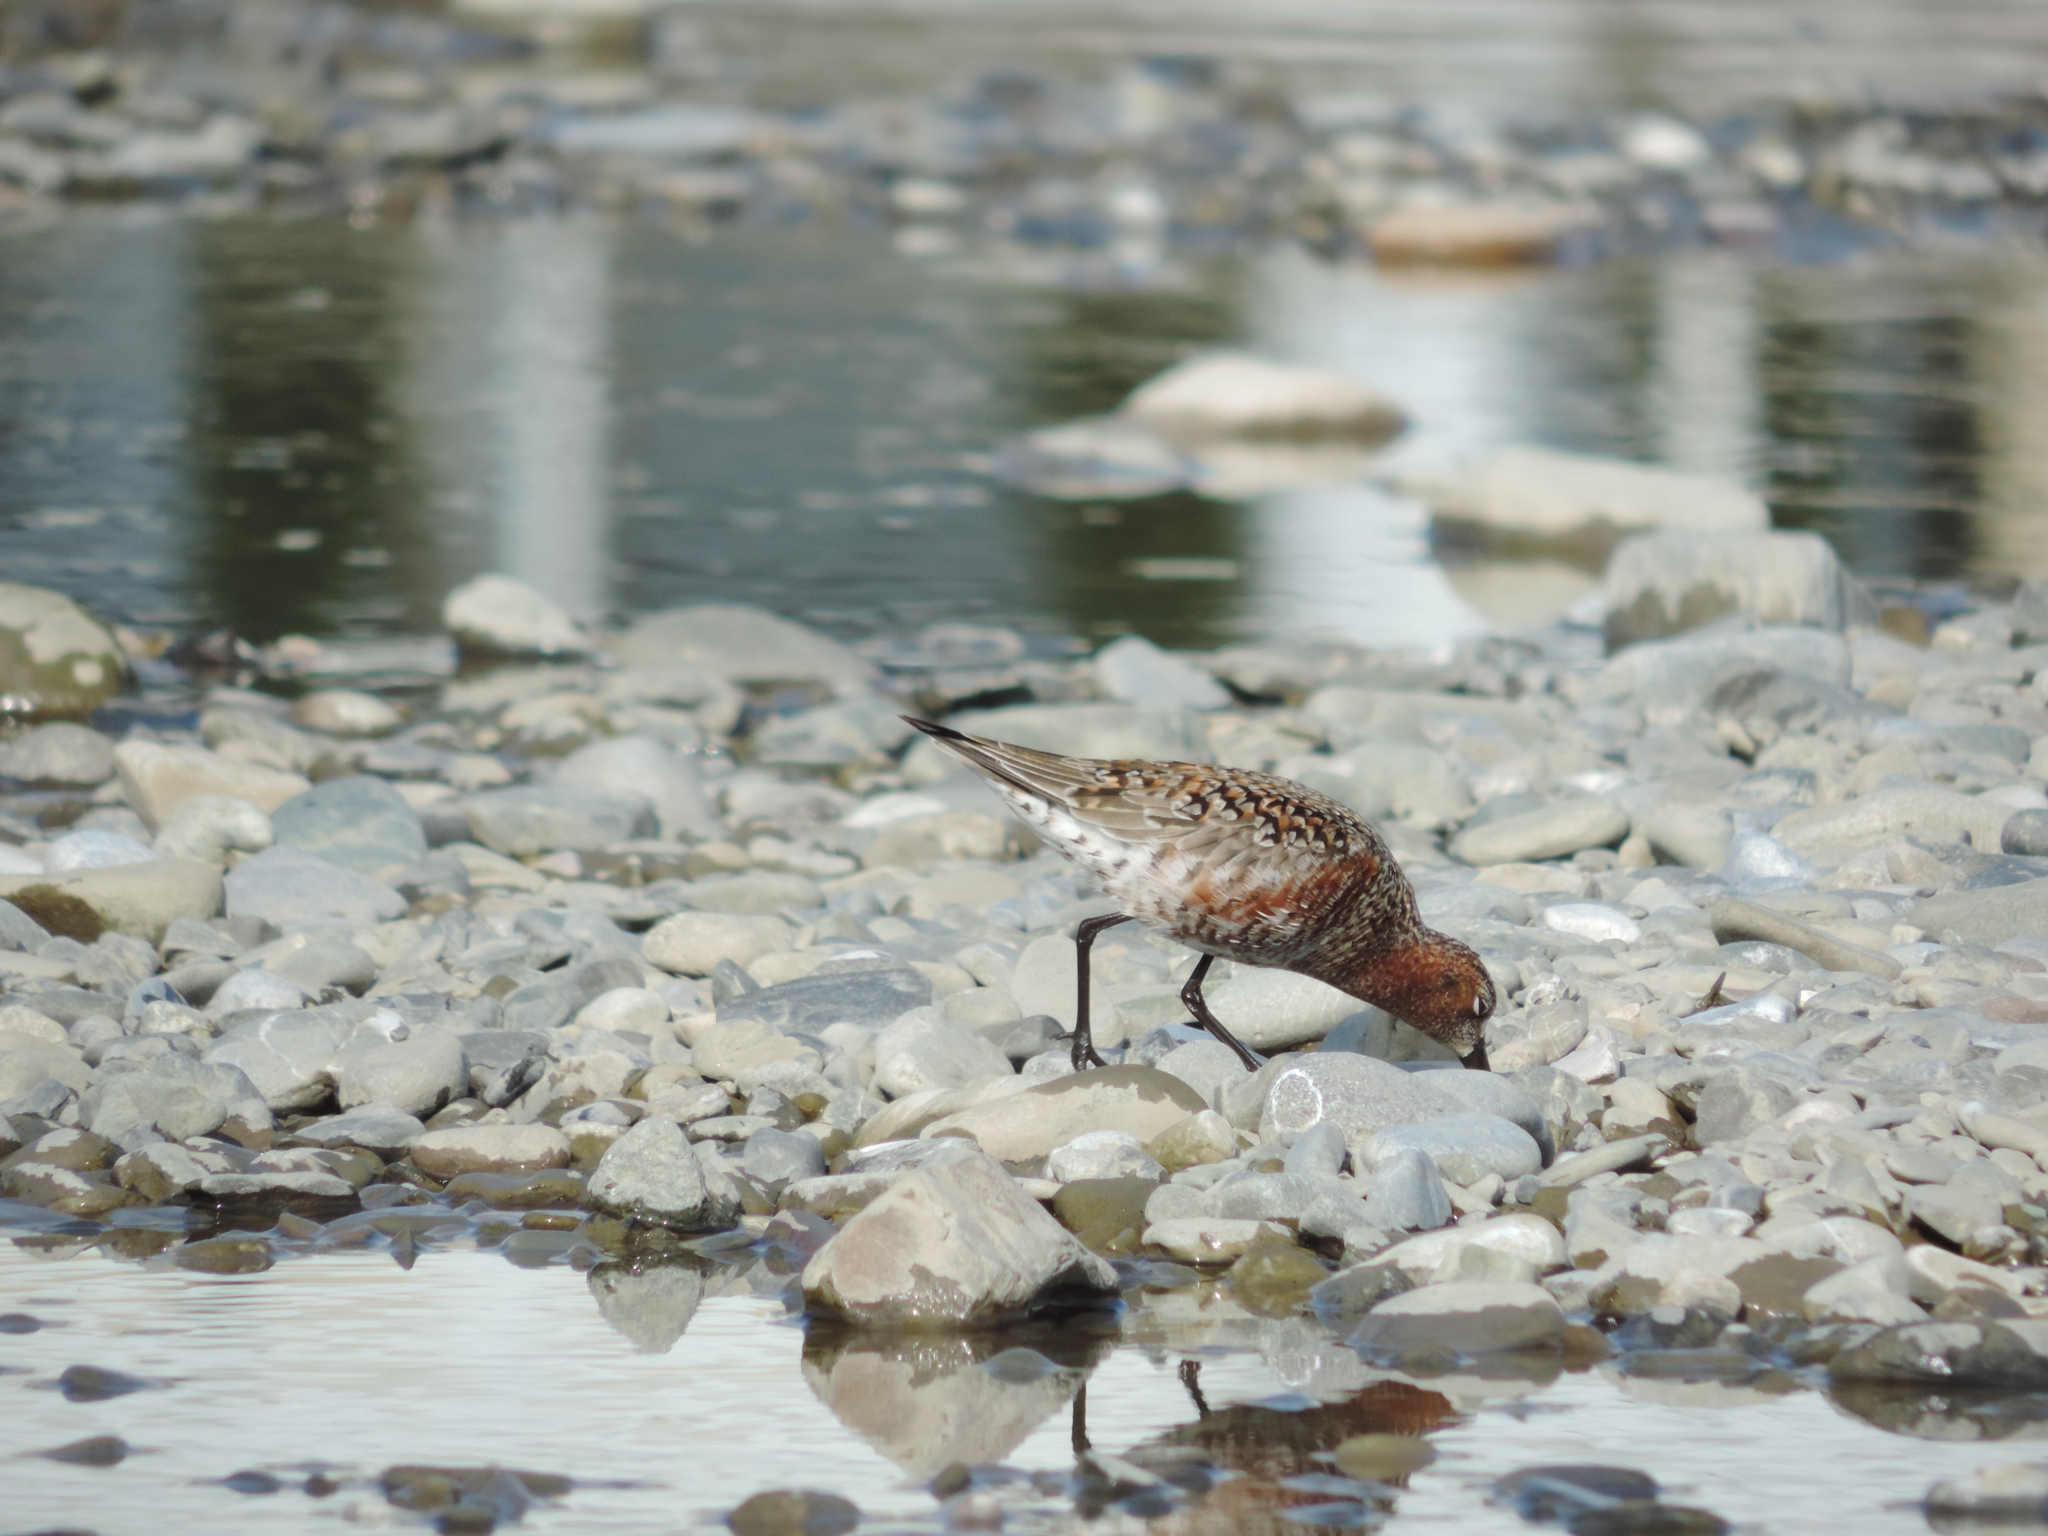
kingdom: Animalia
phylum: Chordata
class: Aves
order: Charadriiformes
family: Scolopacidae
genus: Calidris
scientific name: Calidris ferruginea
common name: Curlew sandpiper
